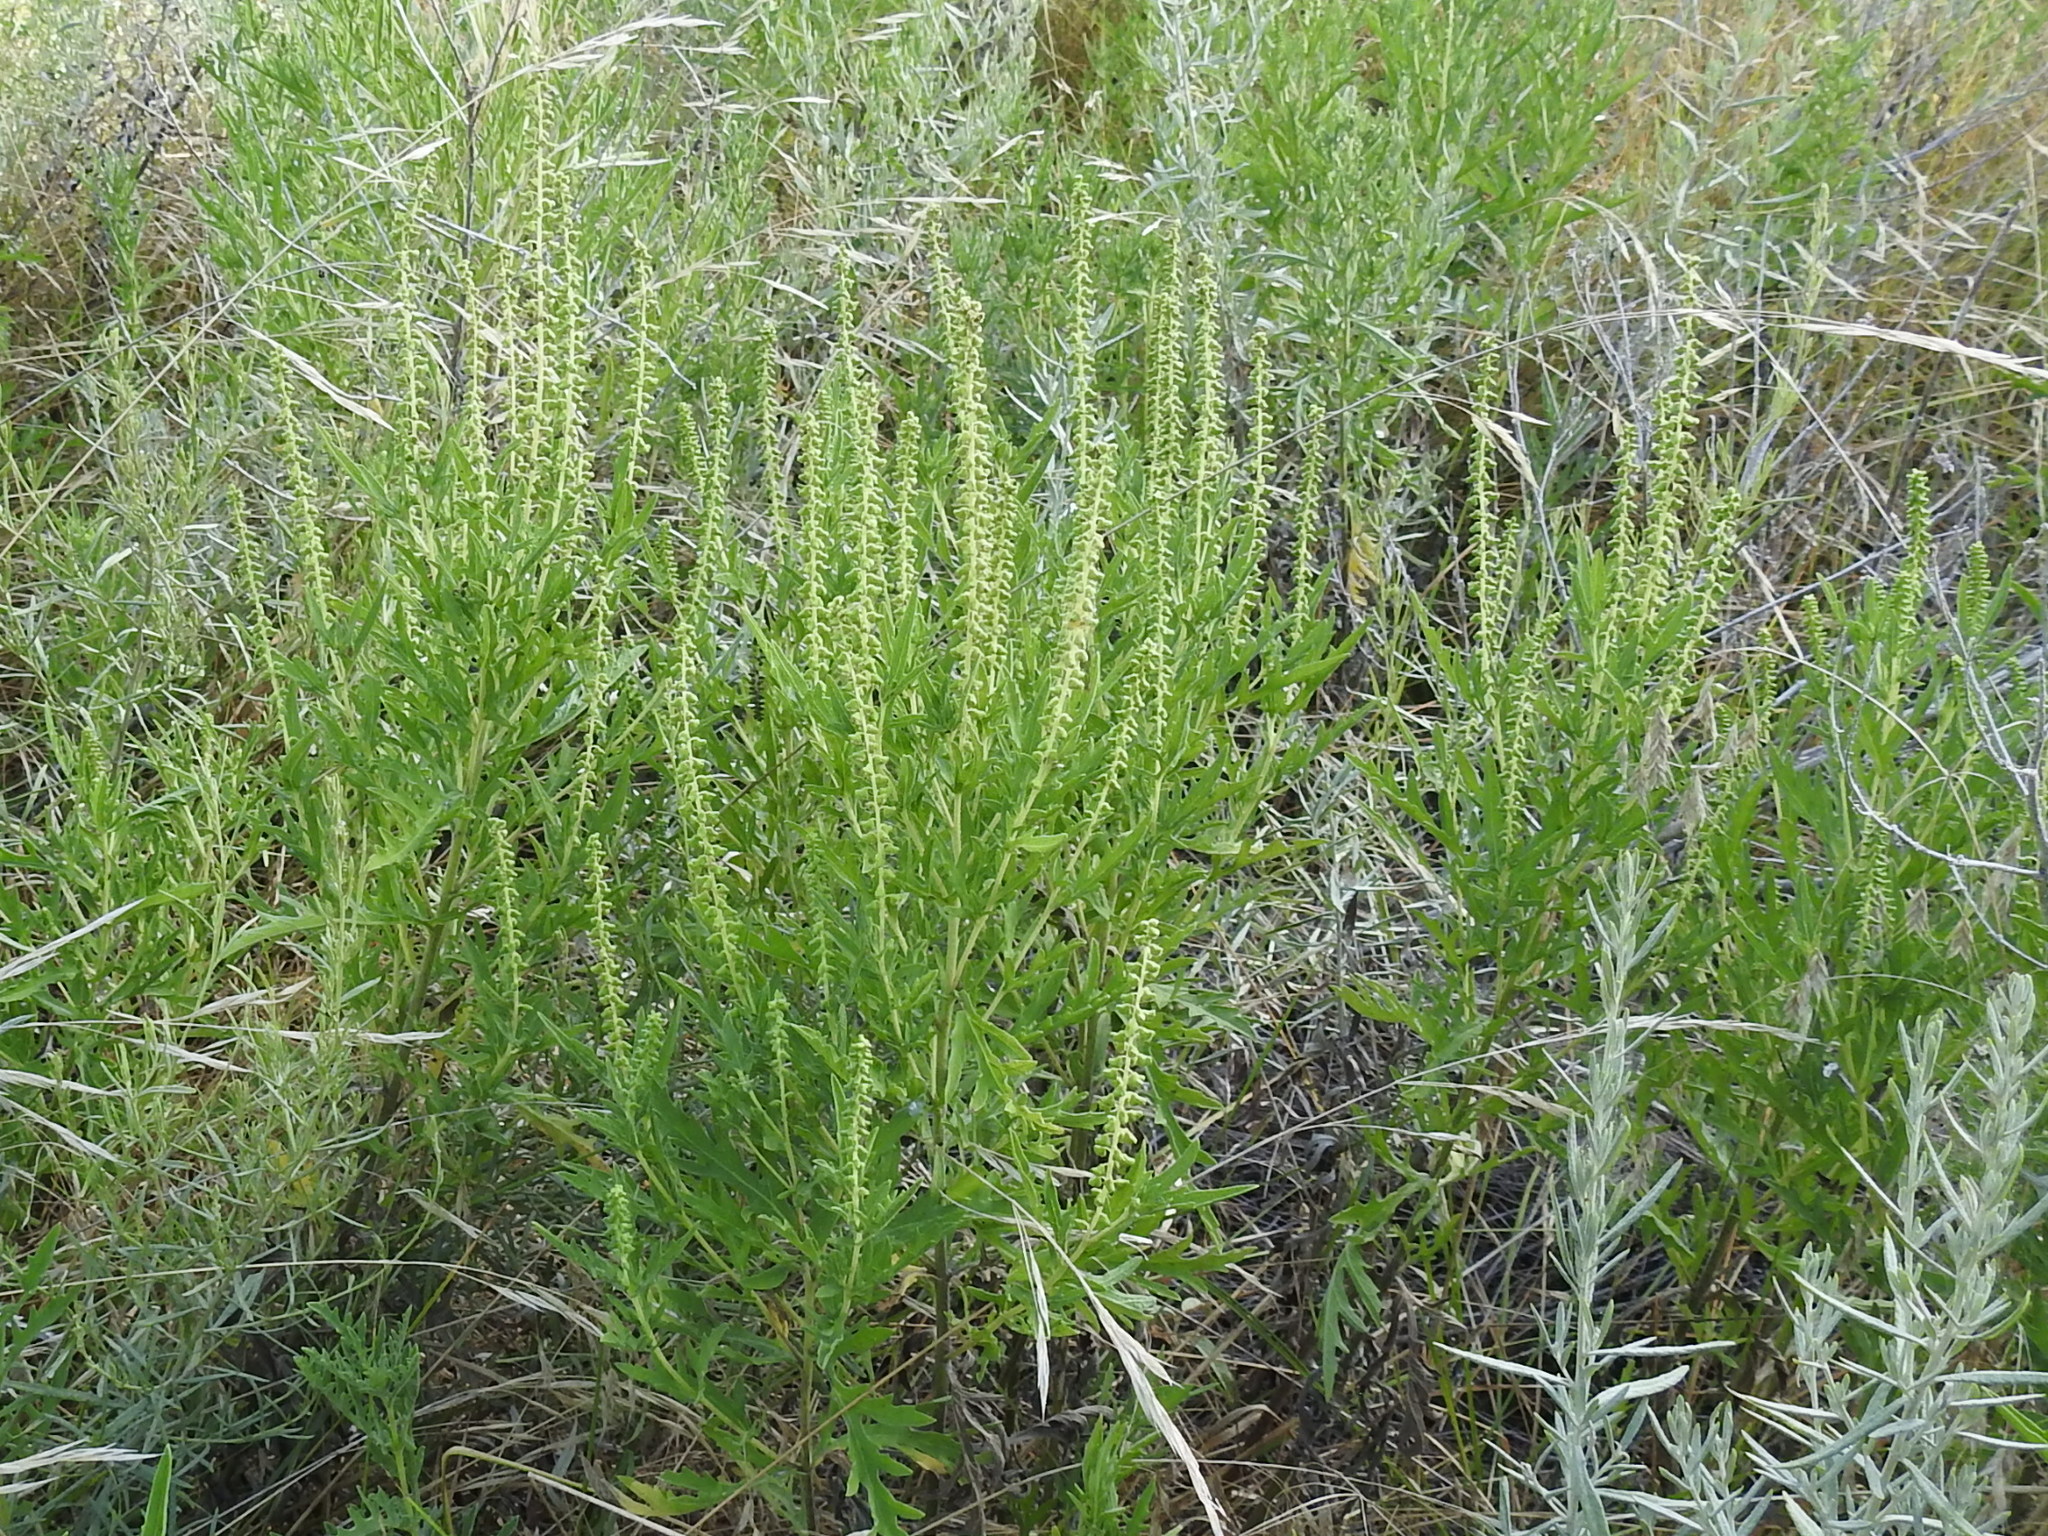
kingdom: Plantae
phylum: Tracheophyta
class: Magnoliopsida
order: Asterales
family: Asteraceae
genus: Ambrosia
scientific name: Ambrosia psilostachya
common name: Perennial ragweed
